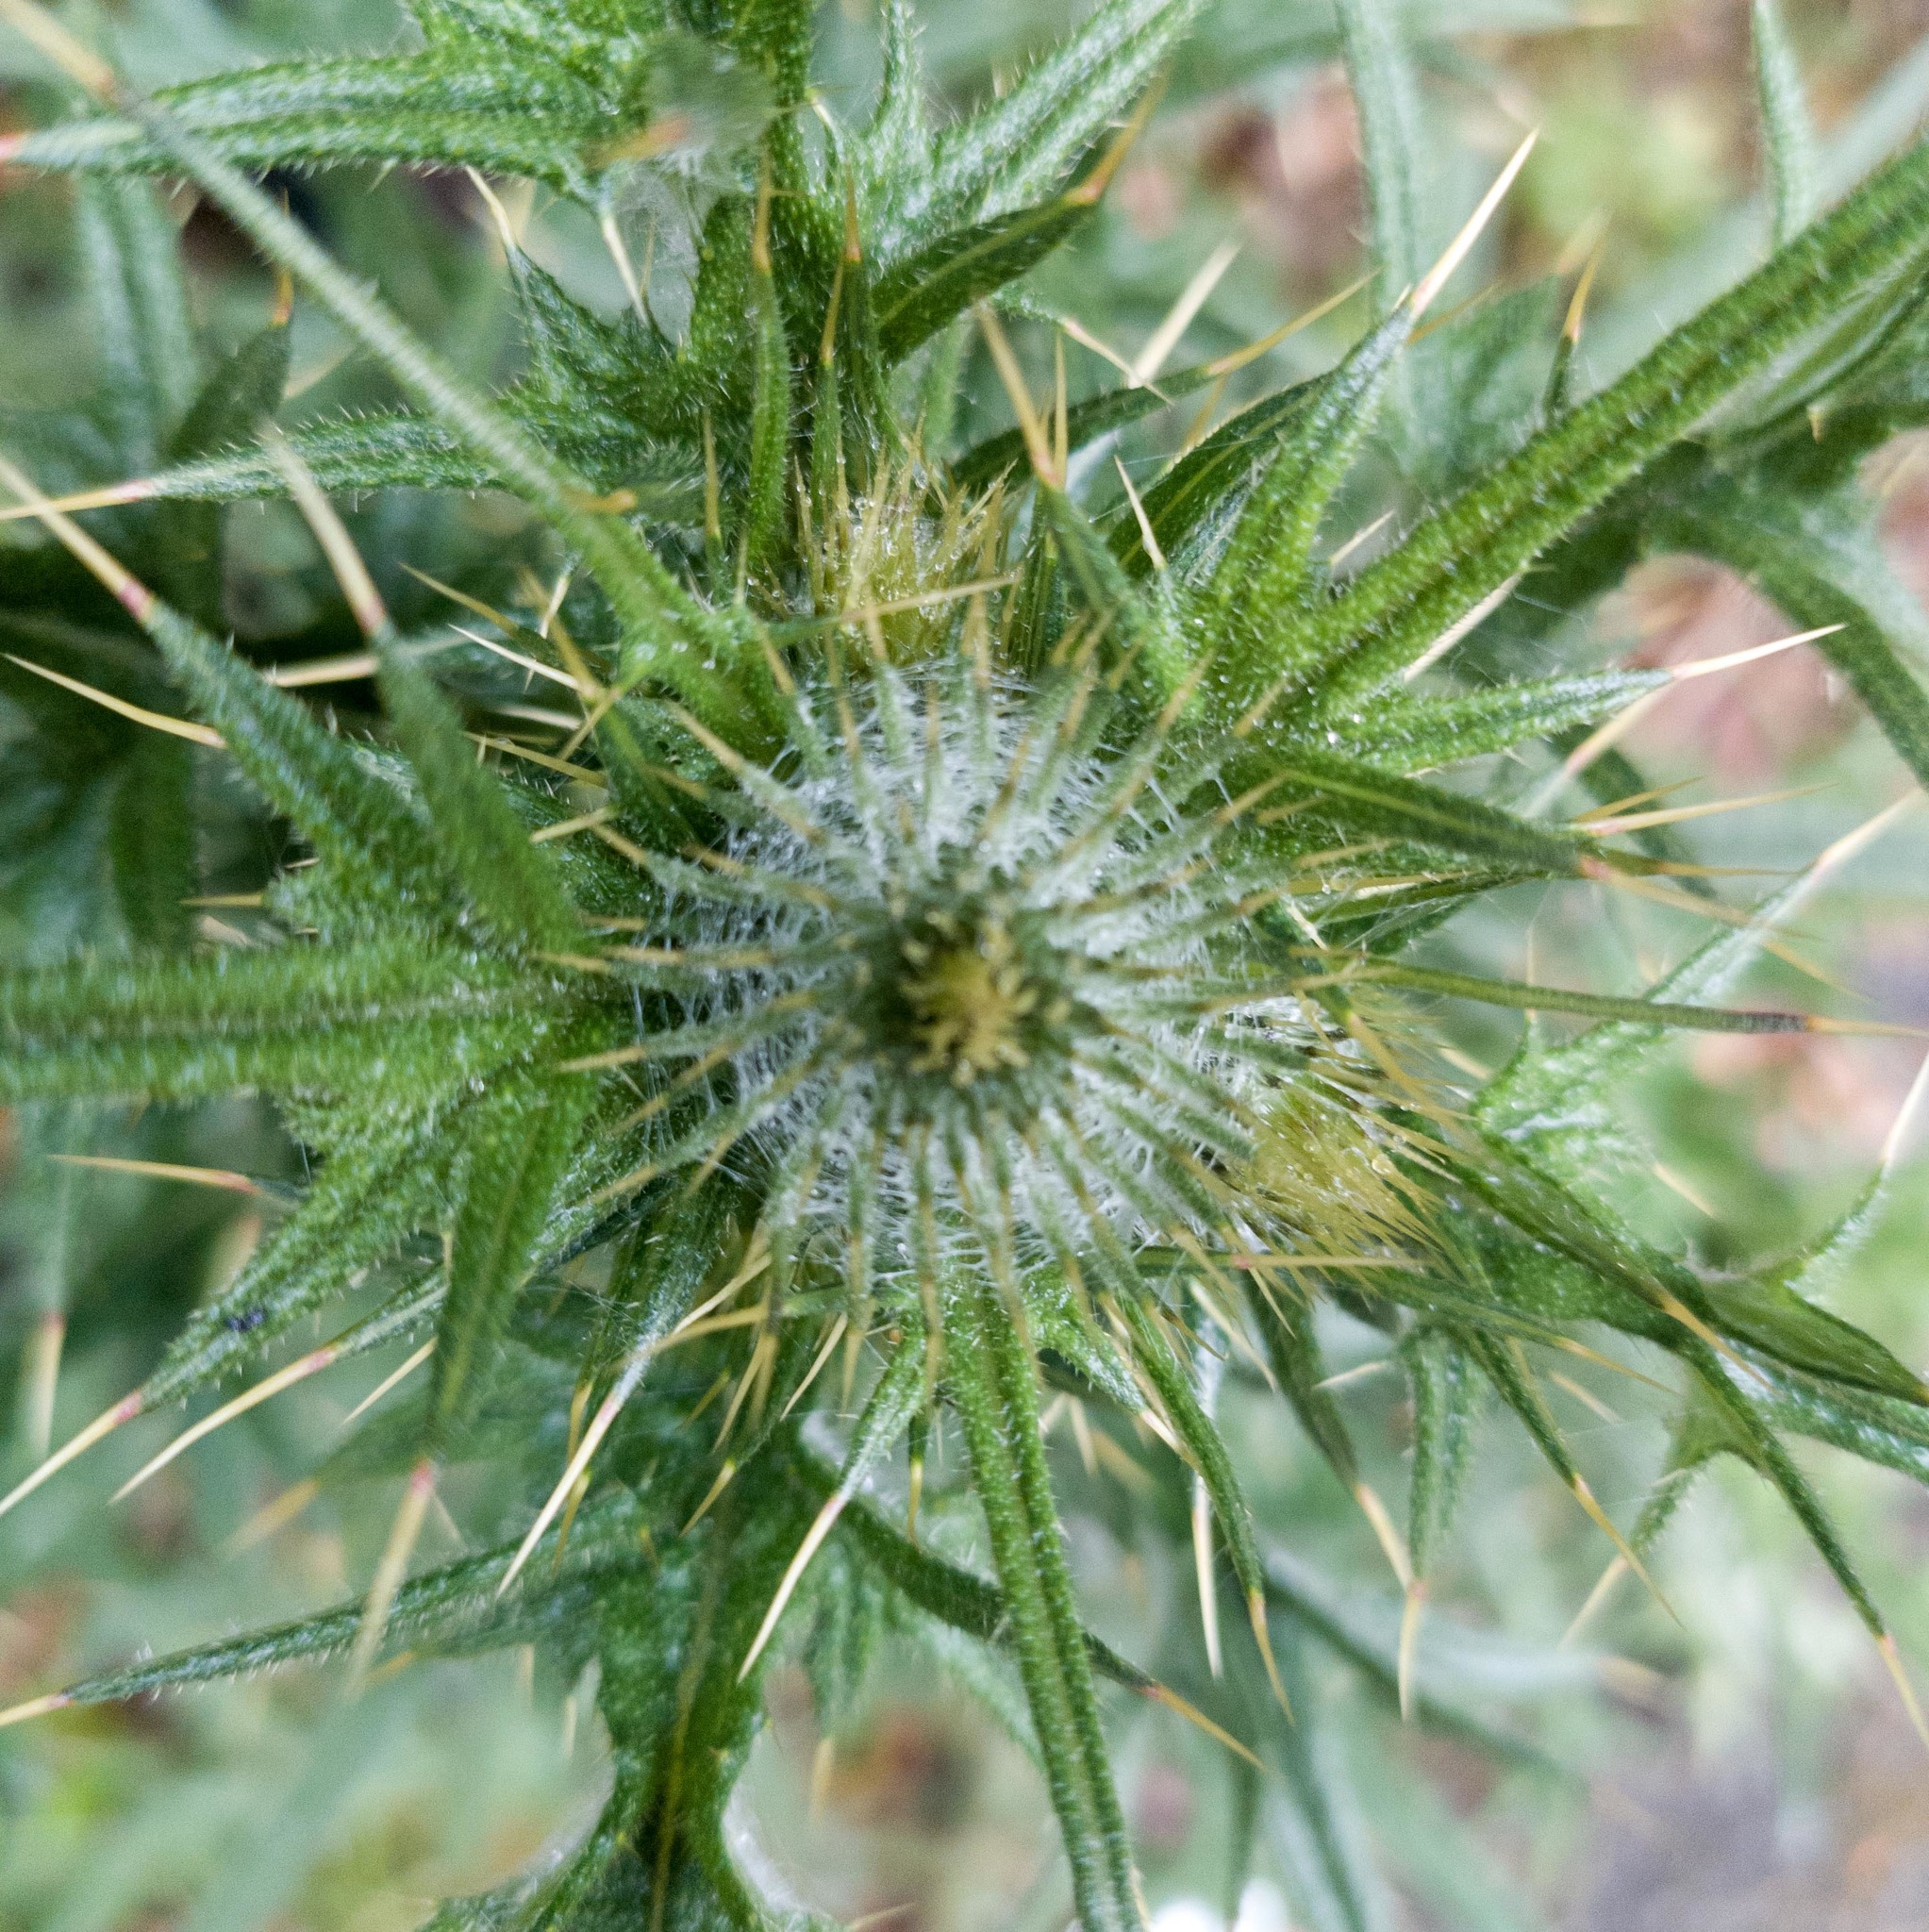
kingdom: Plantae
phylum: Tracheophyta
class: Magnoliopsida
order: Asterales
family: Asteraceae
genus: Cirsium
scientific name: Cirsium vulgare
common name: Bull thistle
